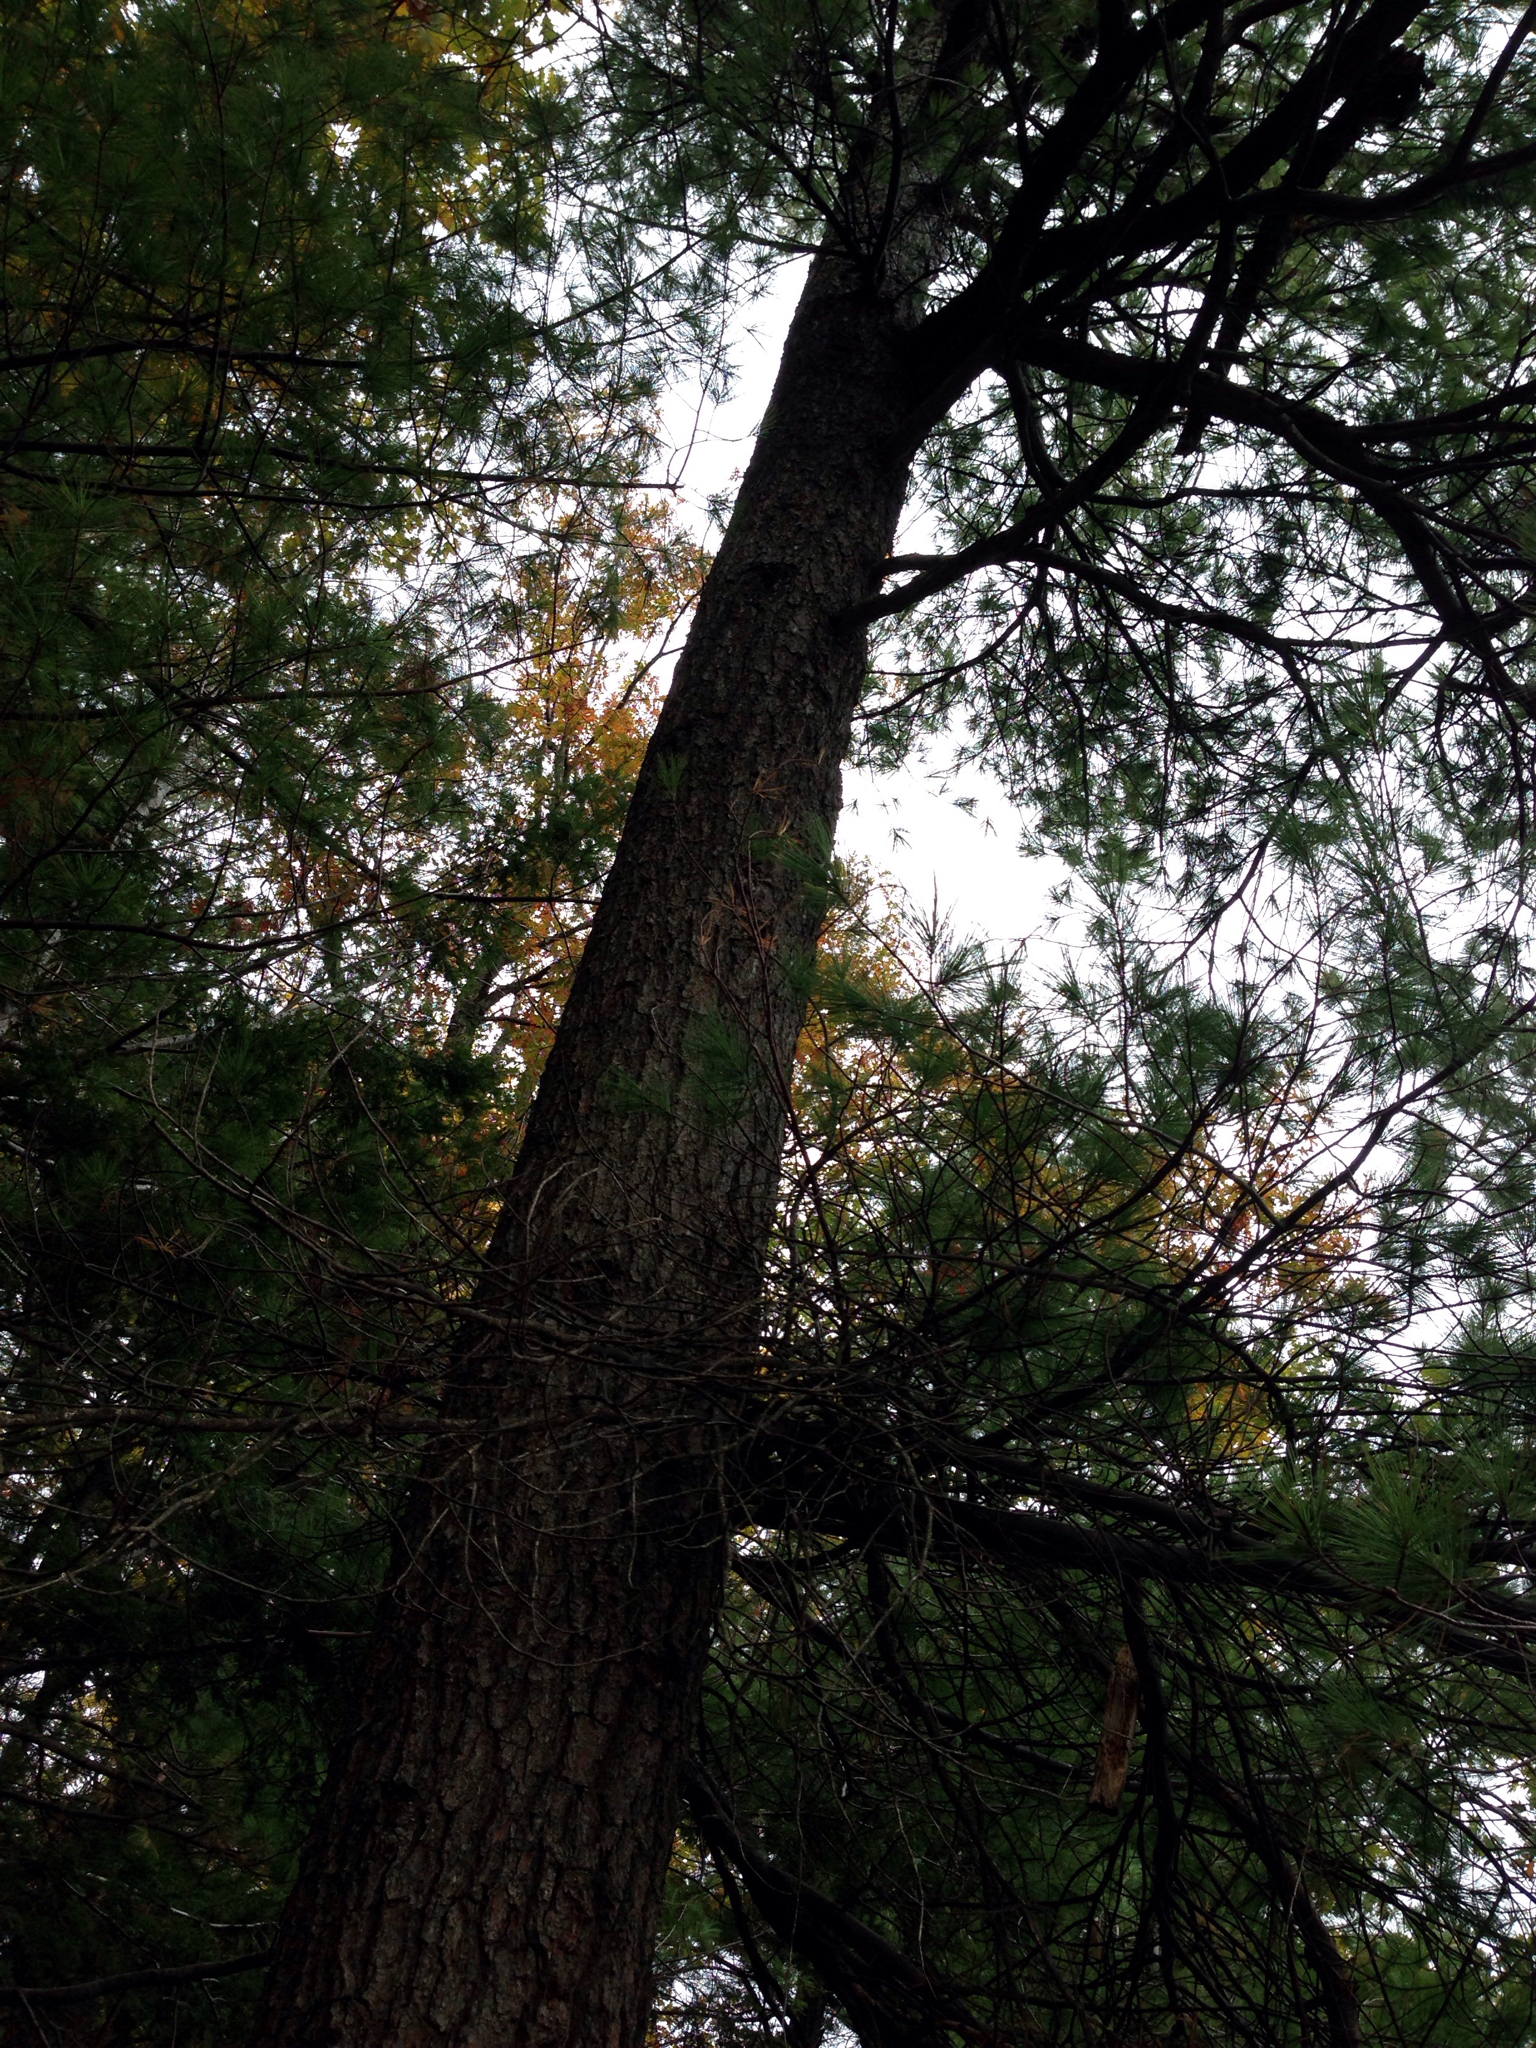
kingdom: Plantae
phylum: Tracheophyta
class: Pinopsida
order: Pinales
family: Pinaceae
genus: Pinus
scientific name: Pinus strobus
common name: Weymouth pine
